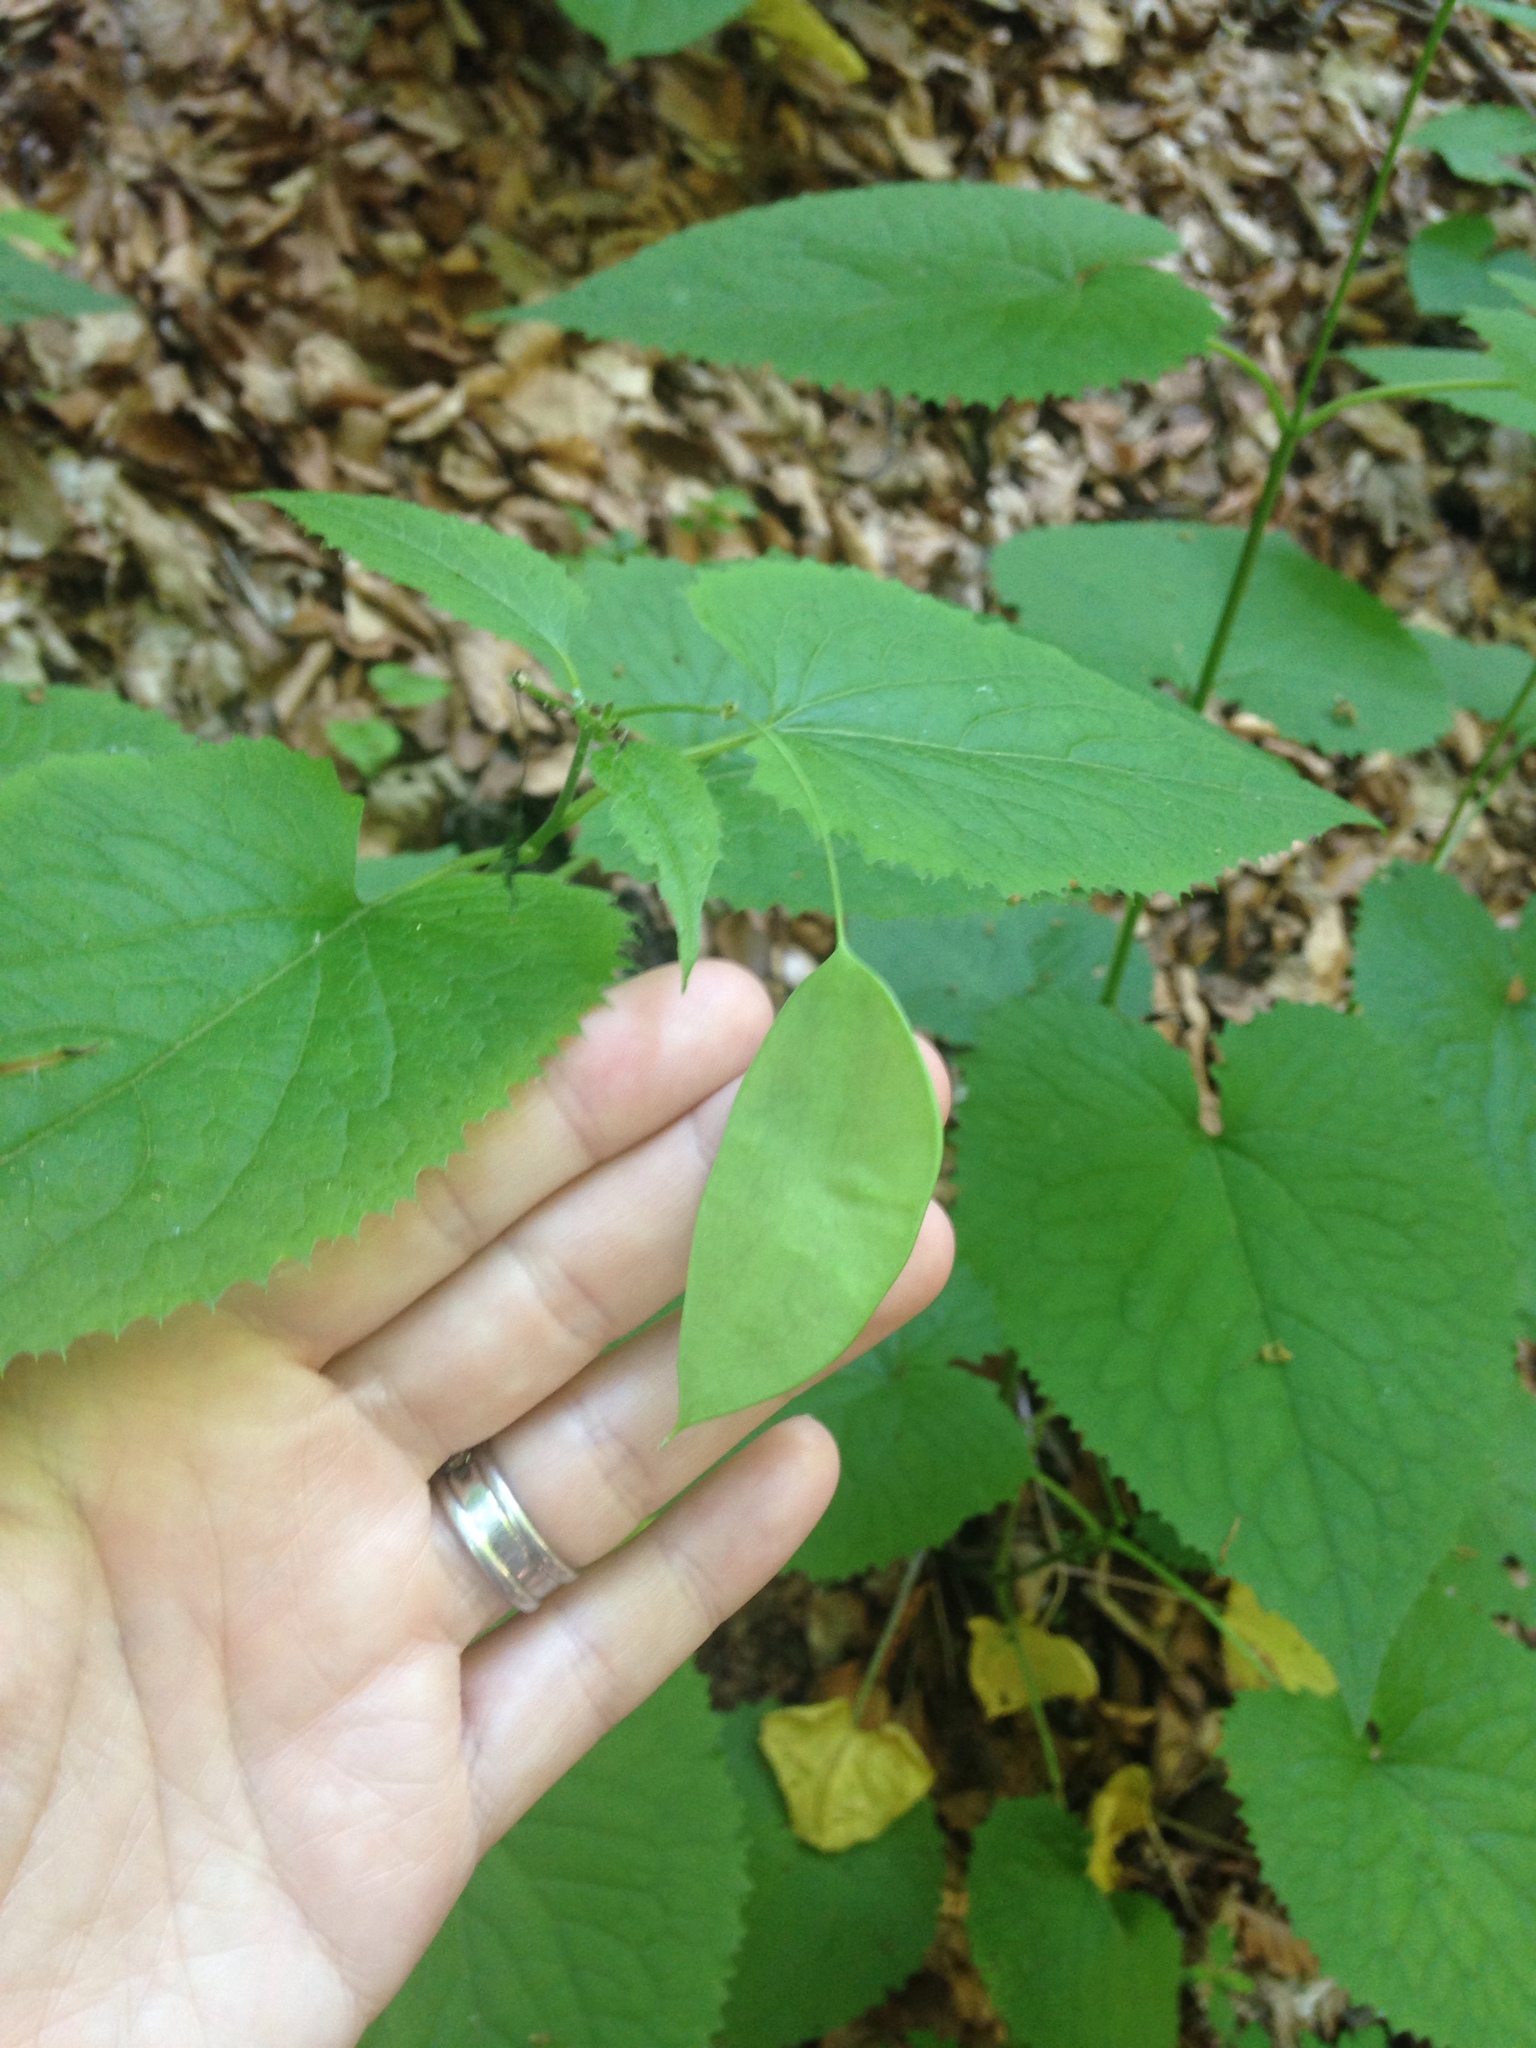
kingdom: Plantae
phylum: Tracheophyta
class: Magnoliopsida
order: Brassicales
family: Brassicaceae
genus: Lunaria
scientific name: Lunaria rediviva
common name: Perennial honesty
